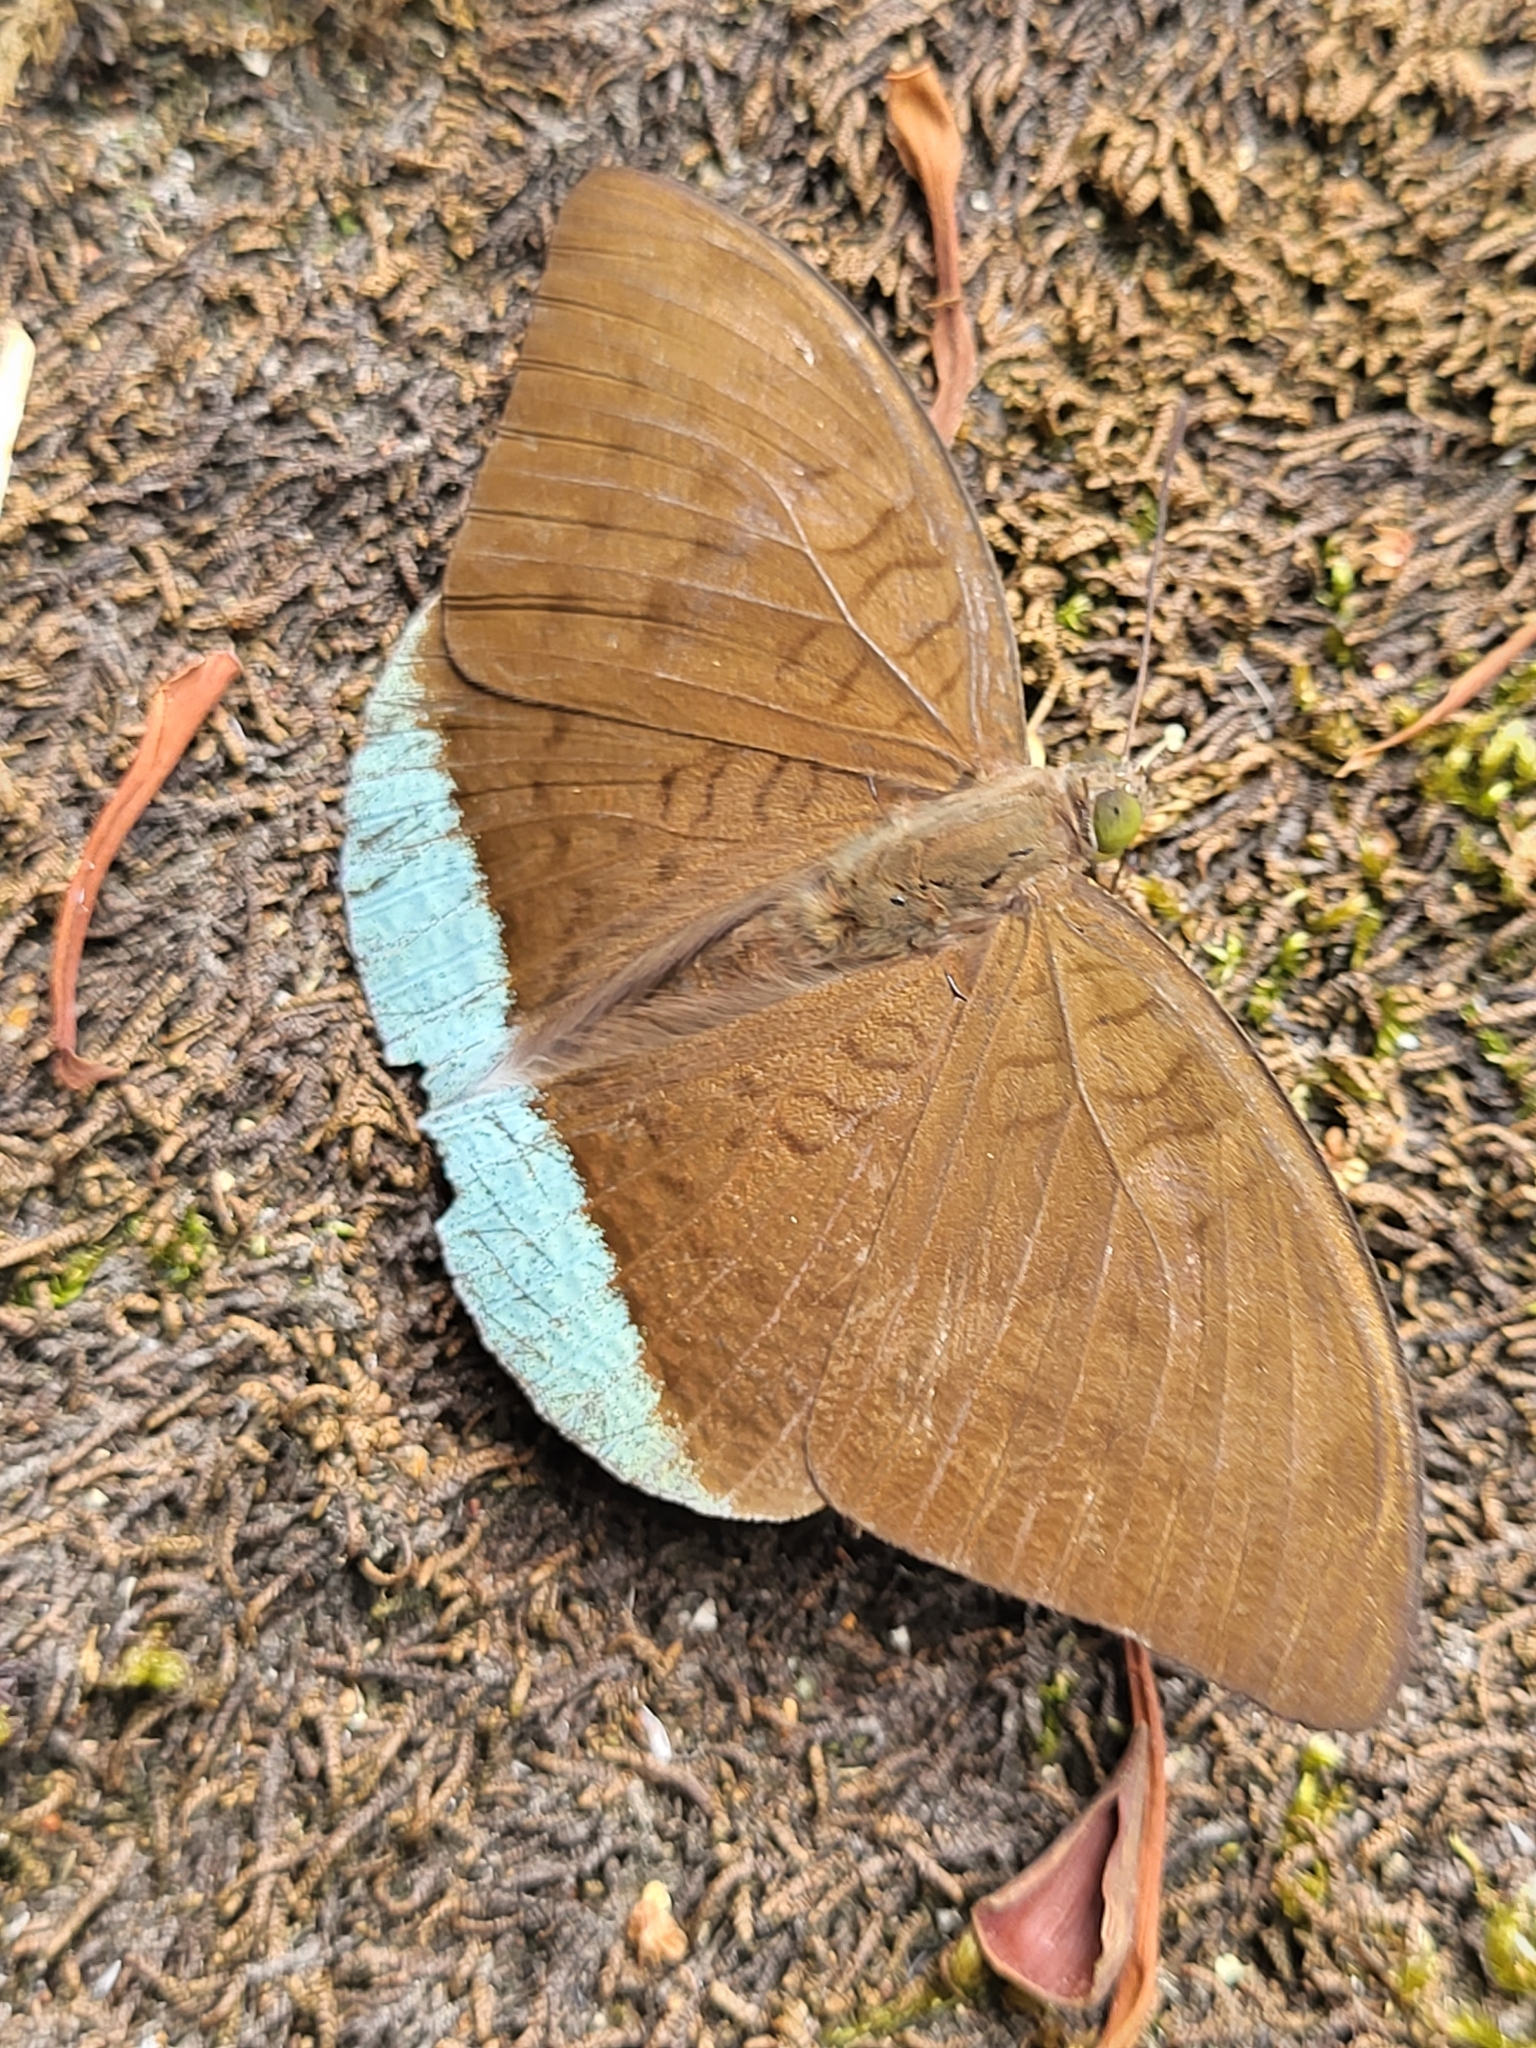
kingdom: Animalia
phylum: Arthropoda
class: Insecta
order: Lepidoptera
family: Nymphalidae
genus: Tanaecia
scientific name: Tanaecia julii
